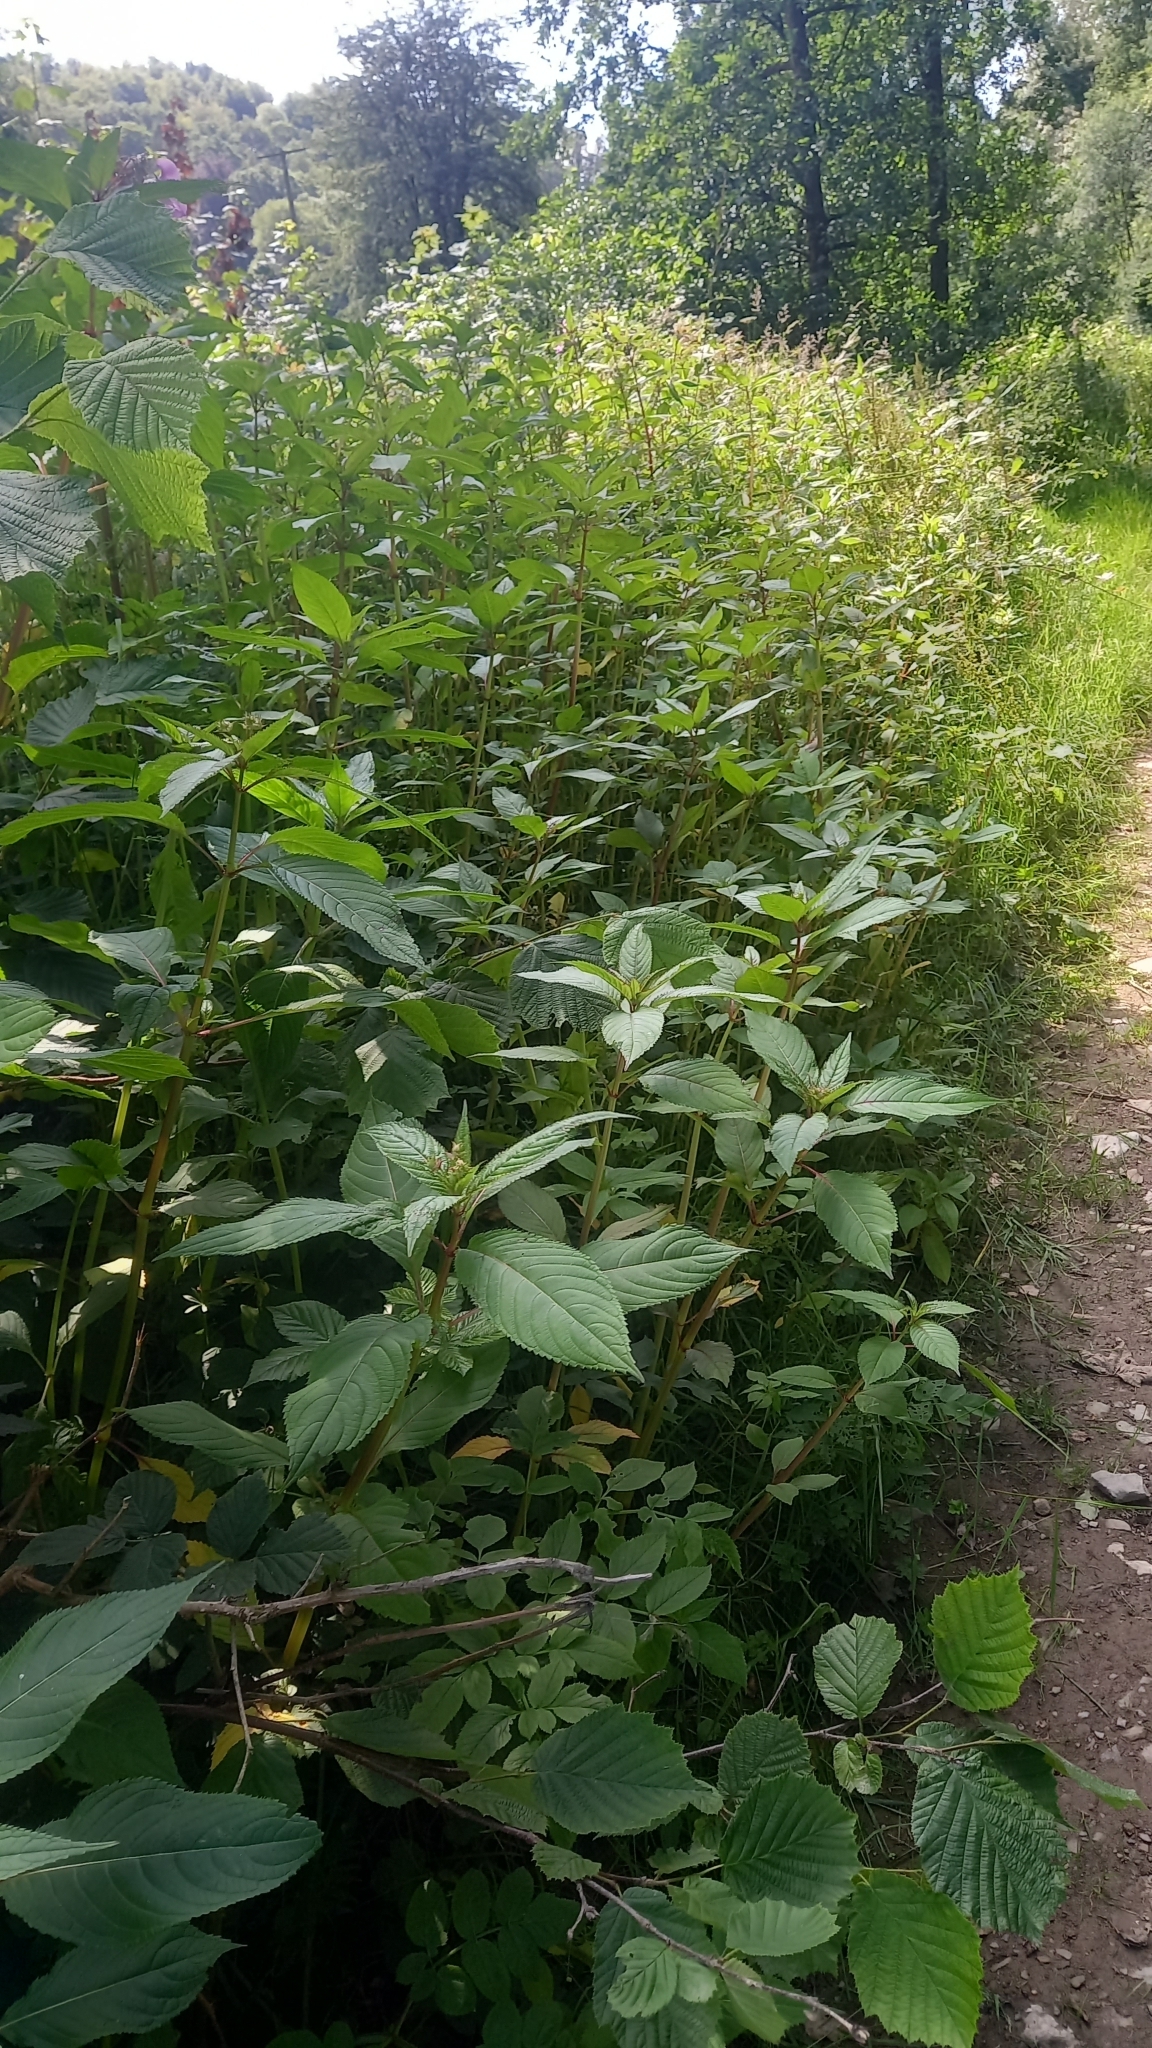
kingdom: Plantae
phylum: Tracheophyta
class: Magnoliopsida
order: Ericales
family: Balsaminaceae
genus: Impatiens
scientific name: Impatiens glandulifera
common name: Himalayan balsam
